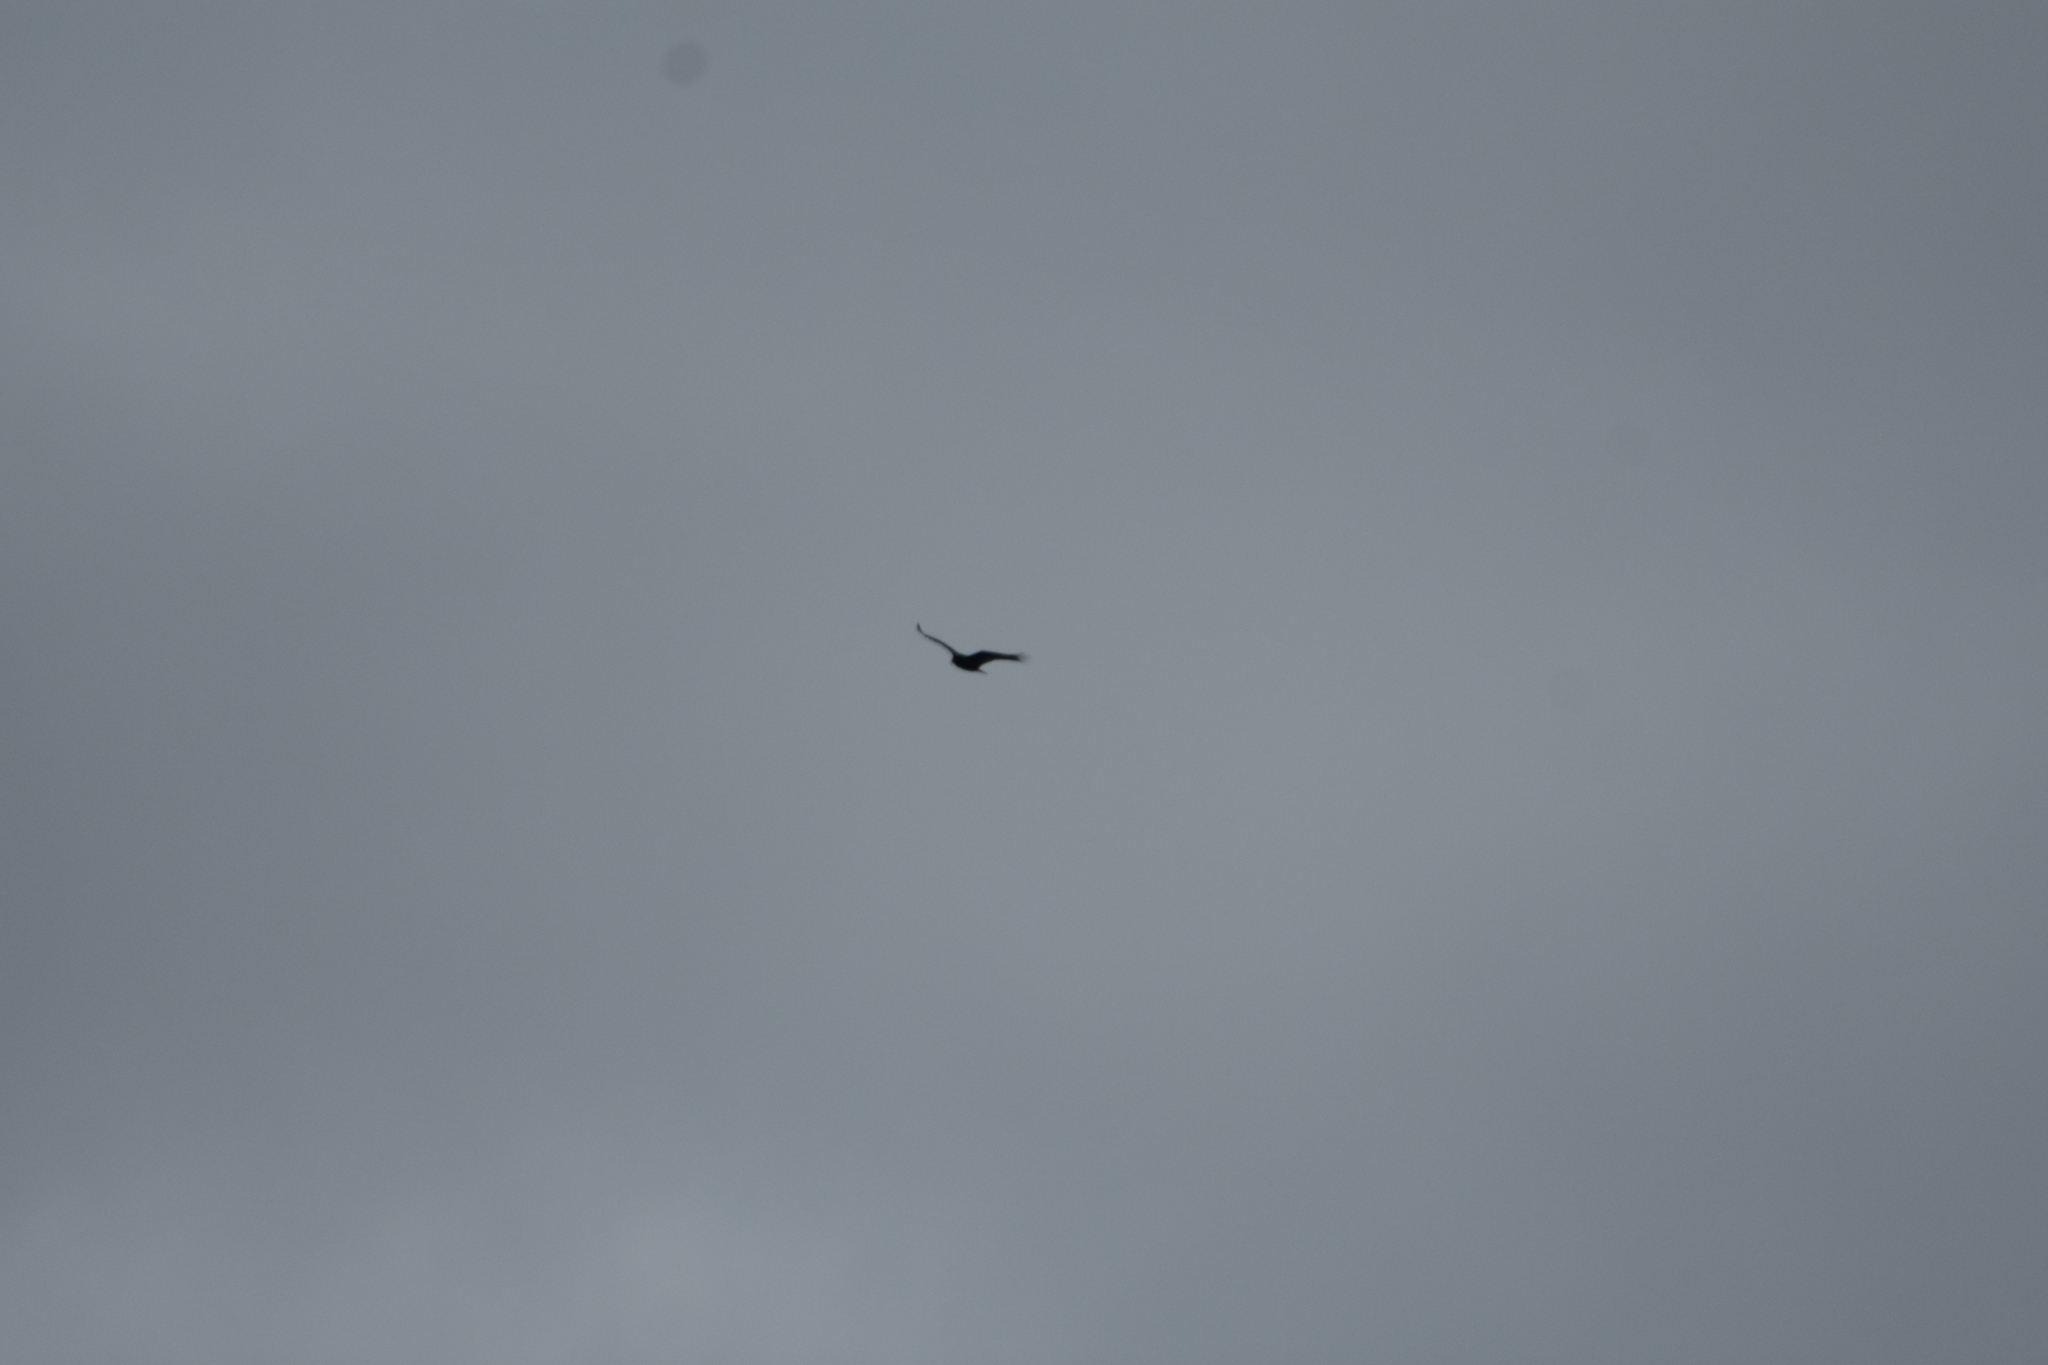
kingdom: Animalia
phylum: Chordata
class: Aves
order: Accipitriformes
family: Cathartidae
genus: Cathartes
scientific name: Cathartes aura
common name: Turkey vulture
